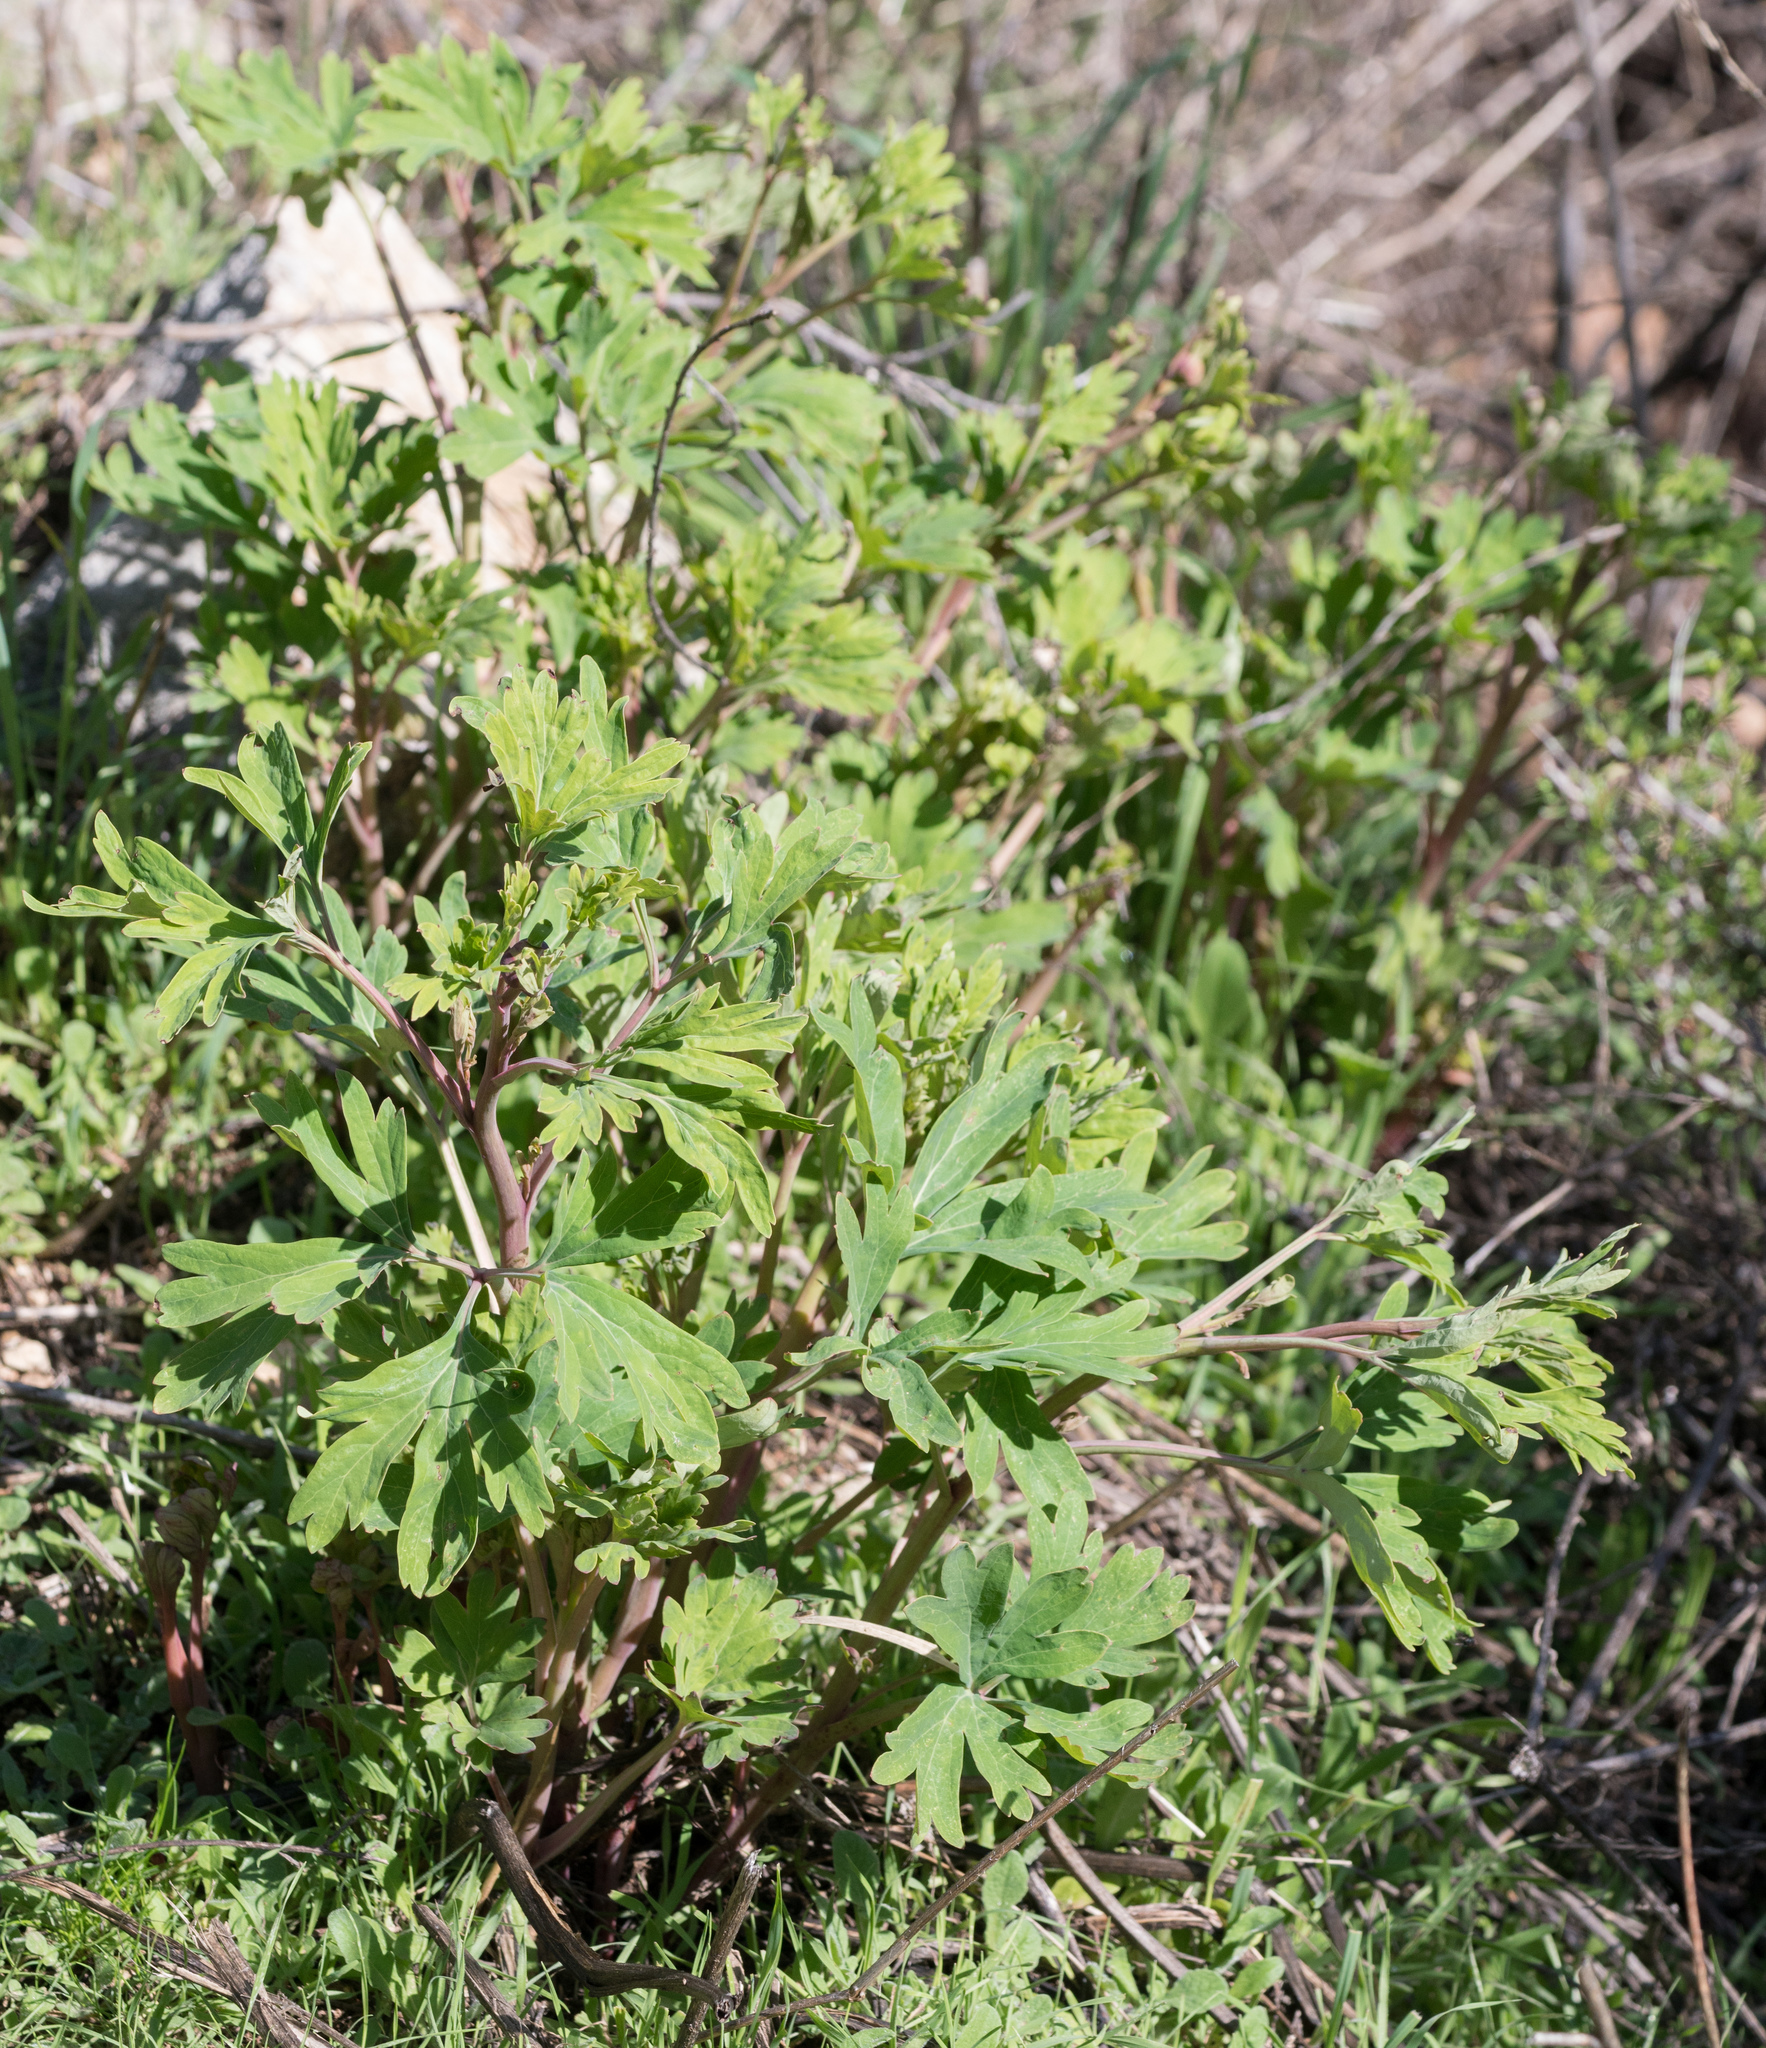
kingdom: Plantae
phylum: Tracheophyta
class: Magnoliopsida
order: Saxifragales
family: Paeoniaceae
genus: Paeonia
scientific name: Paeonia californica
